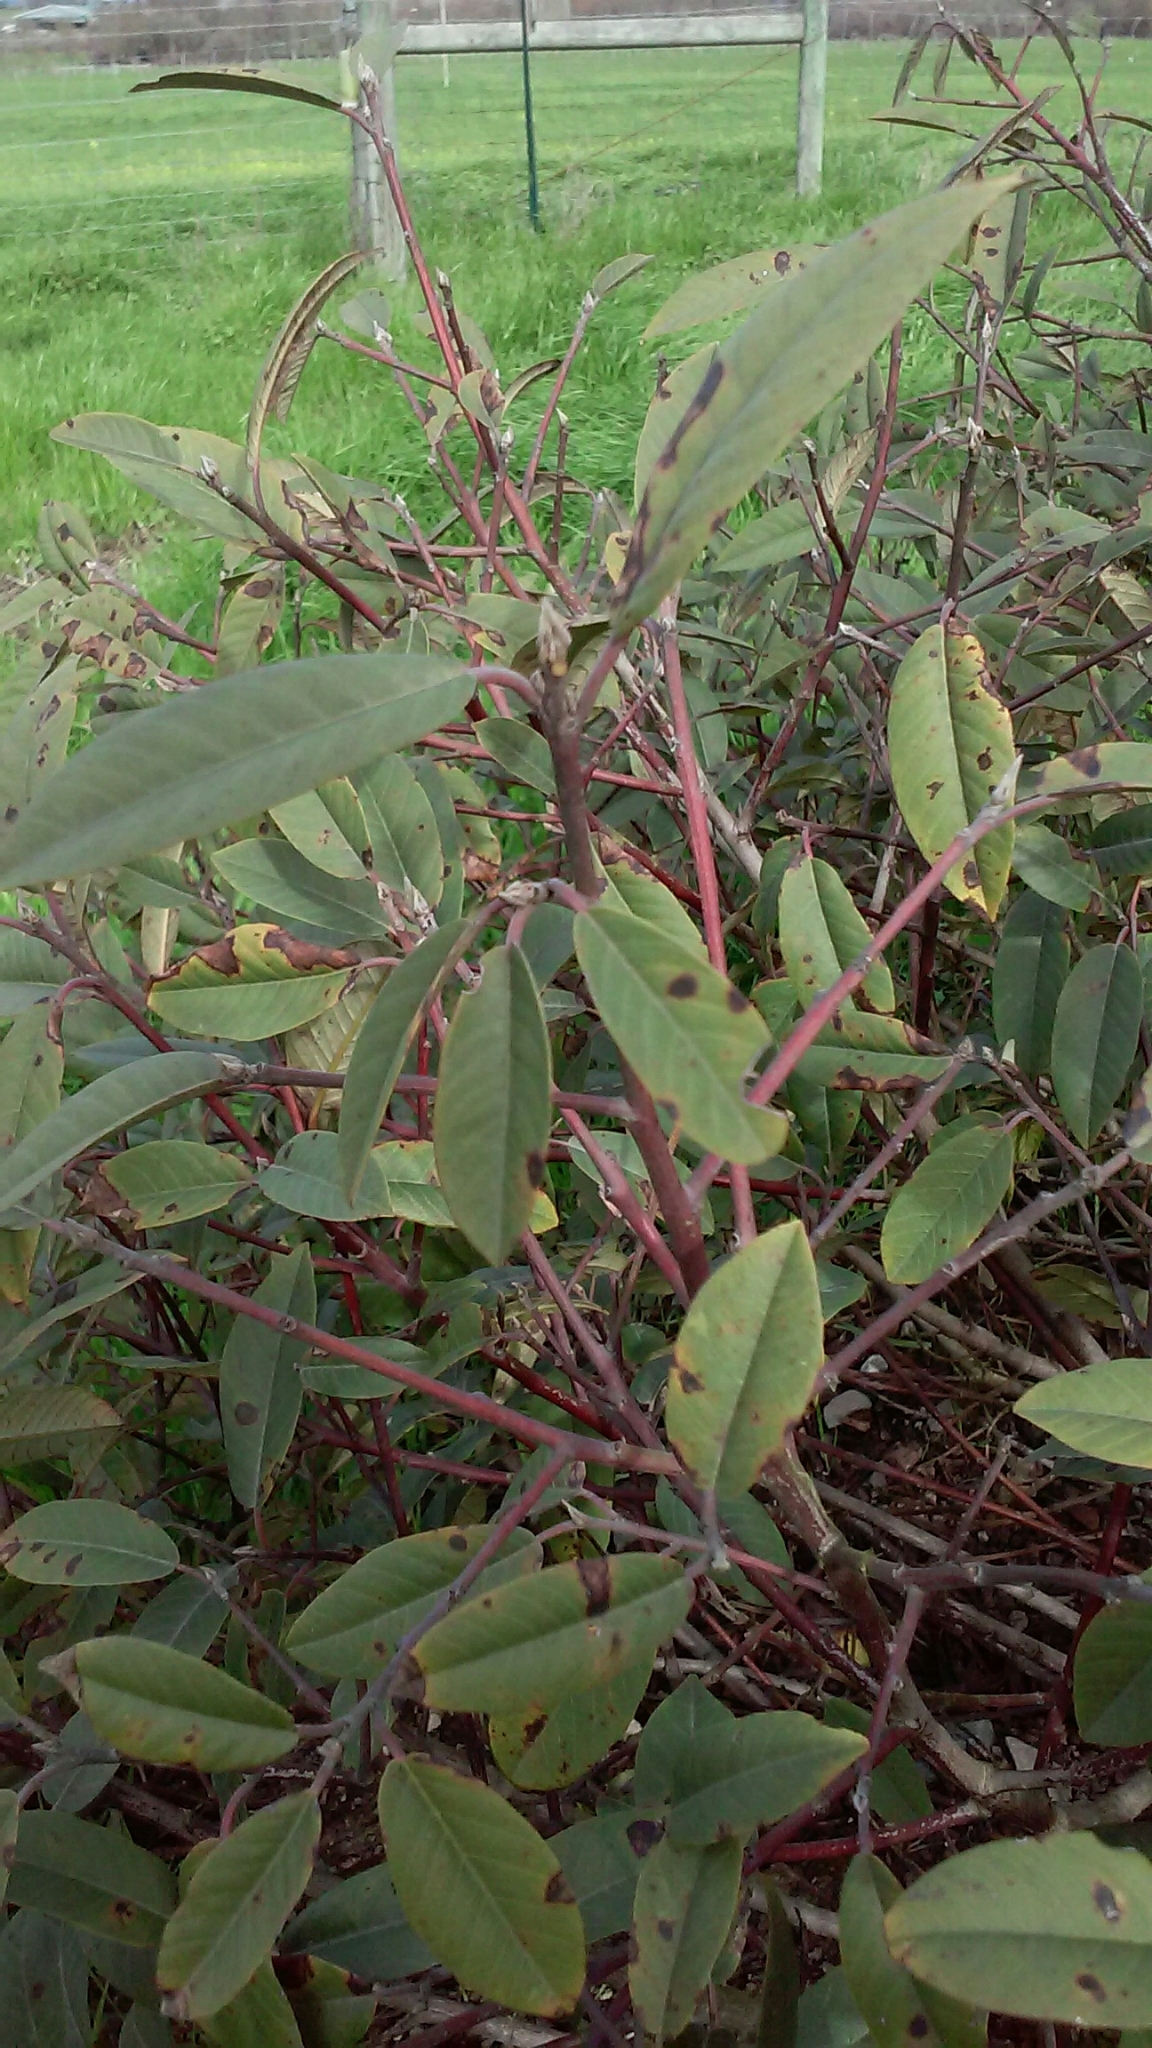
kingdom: Plantae
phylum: Tracheophyta
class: Magnoliopsida
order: Rosales
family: Rhamnaceae
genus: Frangula
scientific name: Frangula californica
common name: California buckthorn
